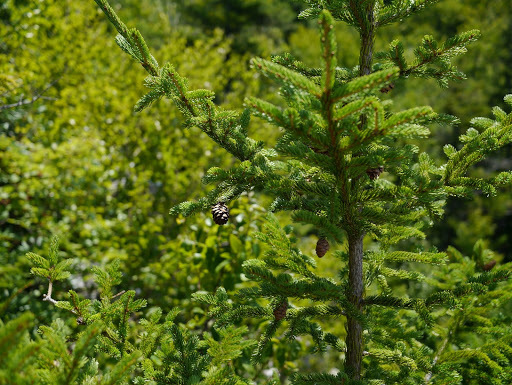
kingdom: Plantae
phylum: Tracheophyta
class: Pinopsida
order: Pinales
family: Pinaceae
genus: Picea
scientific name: Picea rubens
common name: Red spruce
